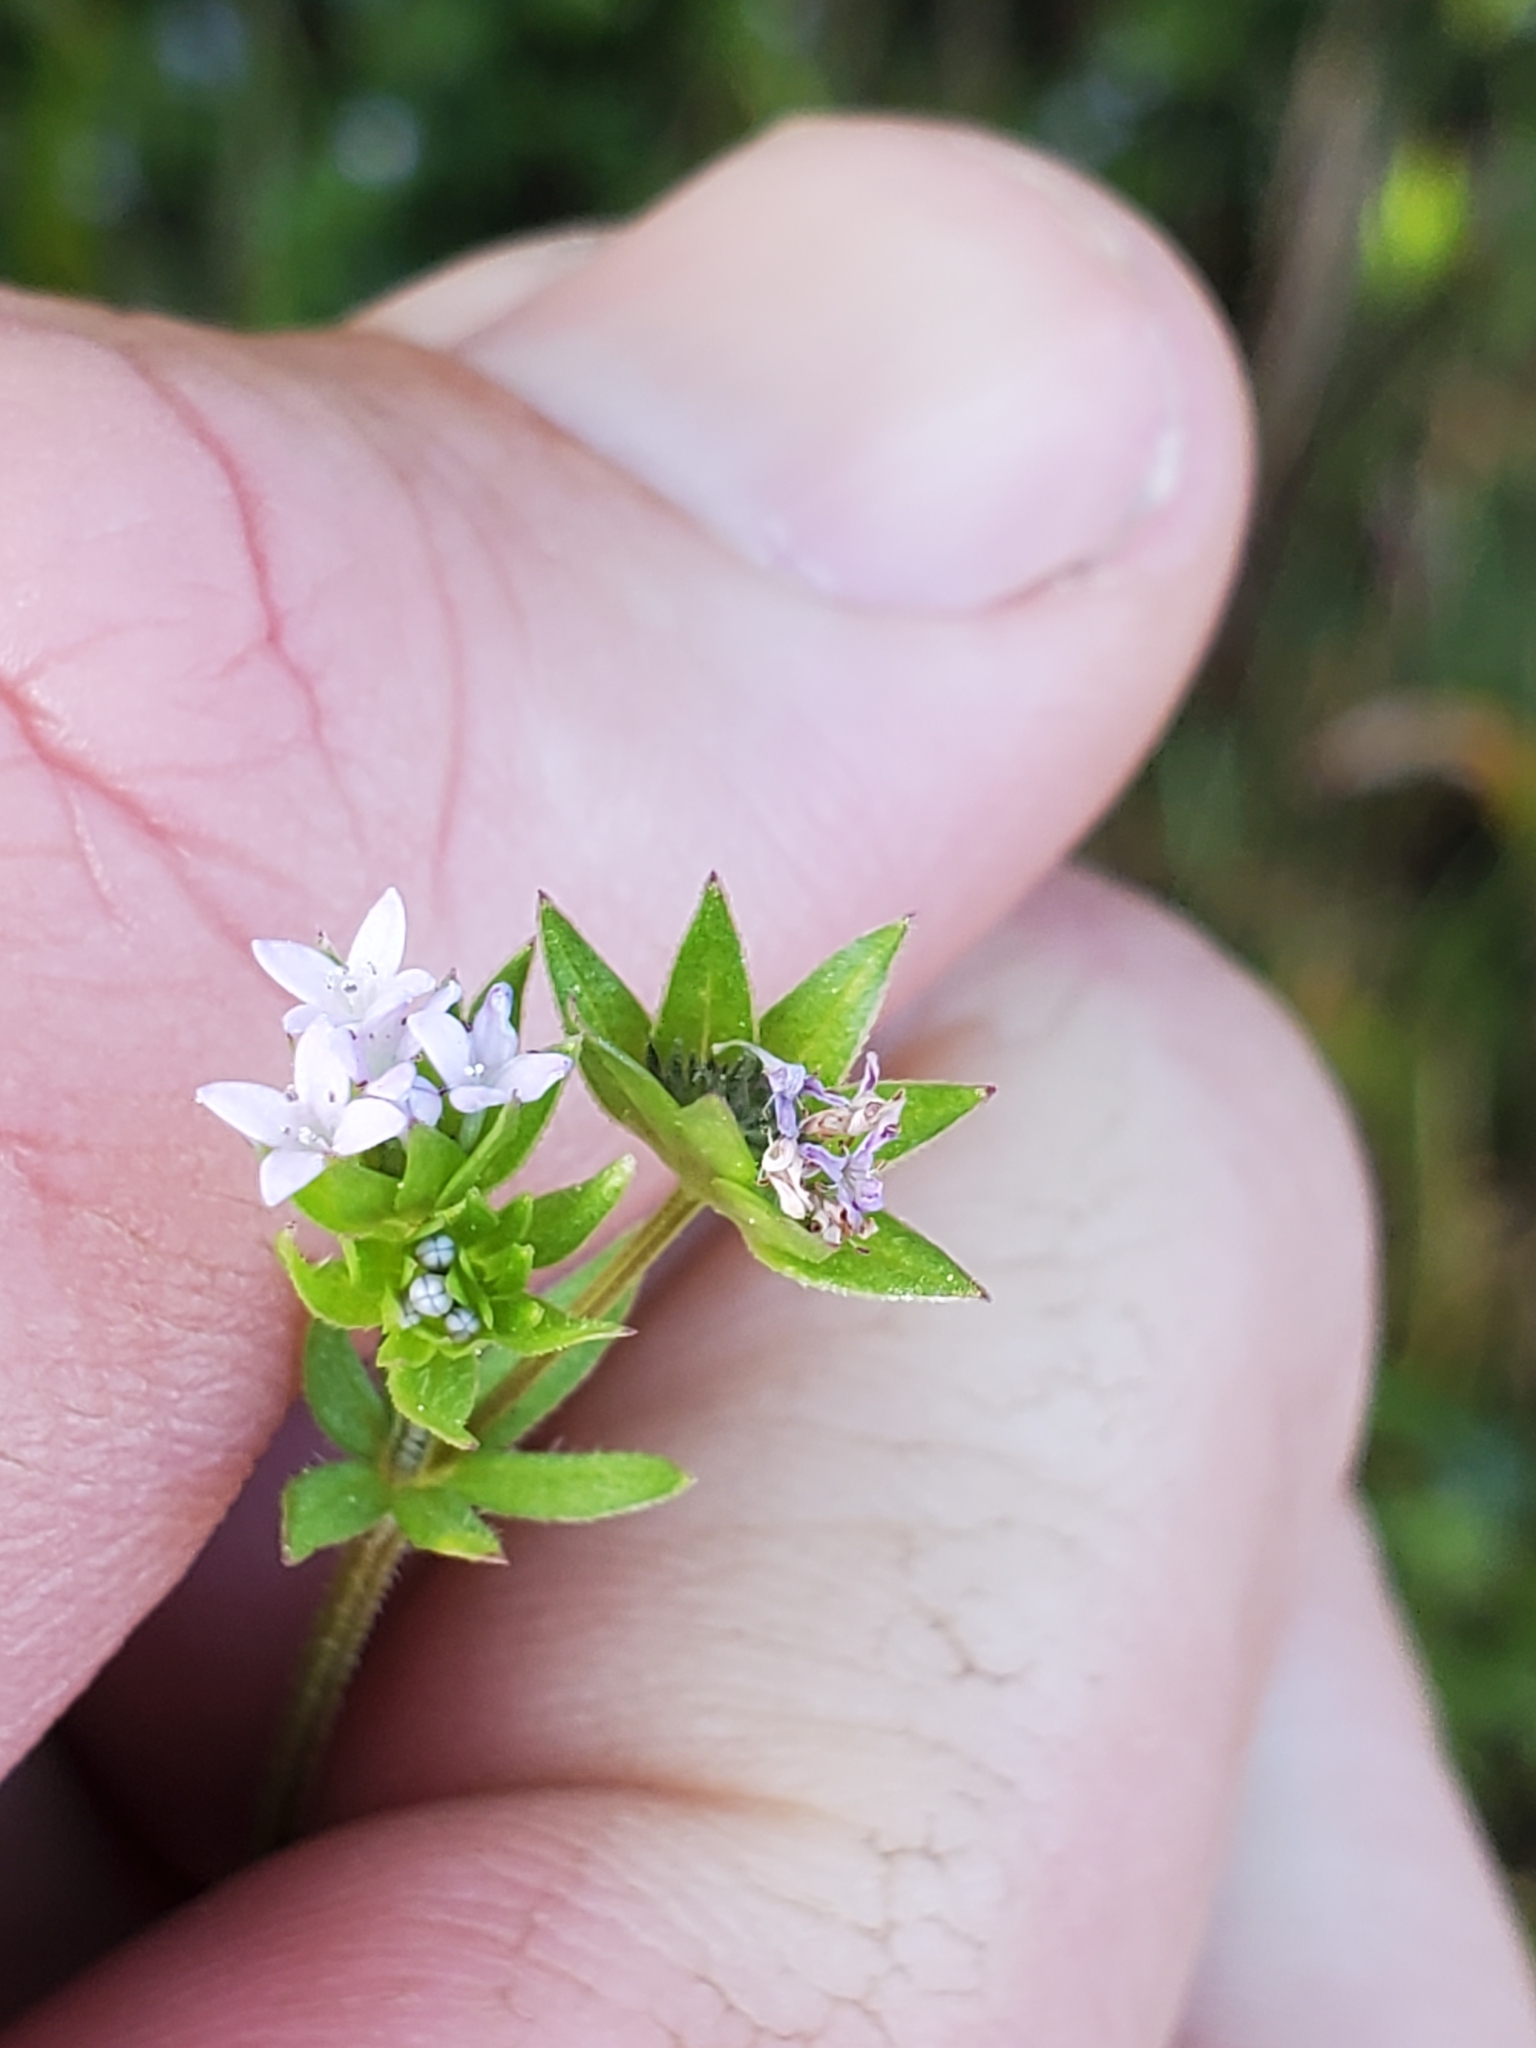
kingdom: Plantae
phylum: Tracheophyta
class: Magnoliopsida
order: Gentianales
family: Rubiaceae
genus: Sherardia
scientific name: Sherardia arvensis
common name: Field madder
